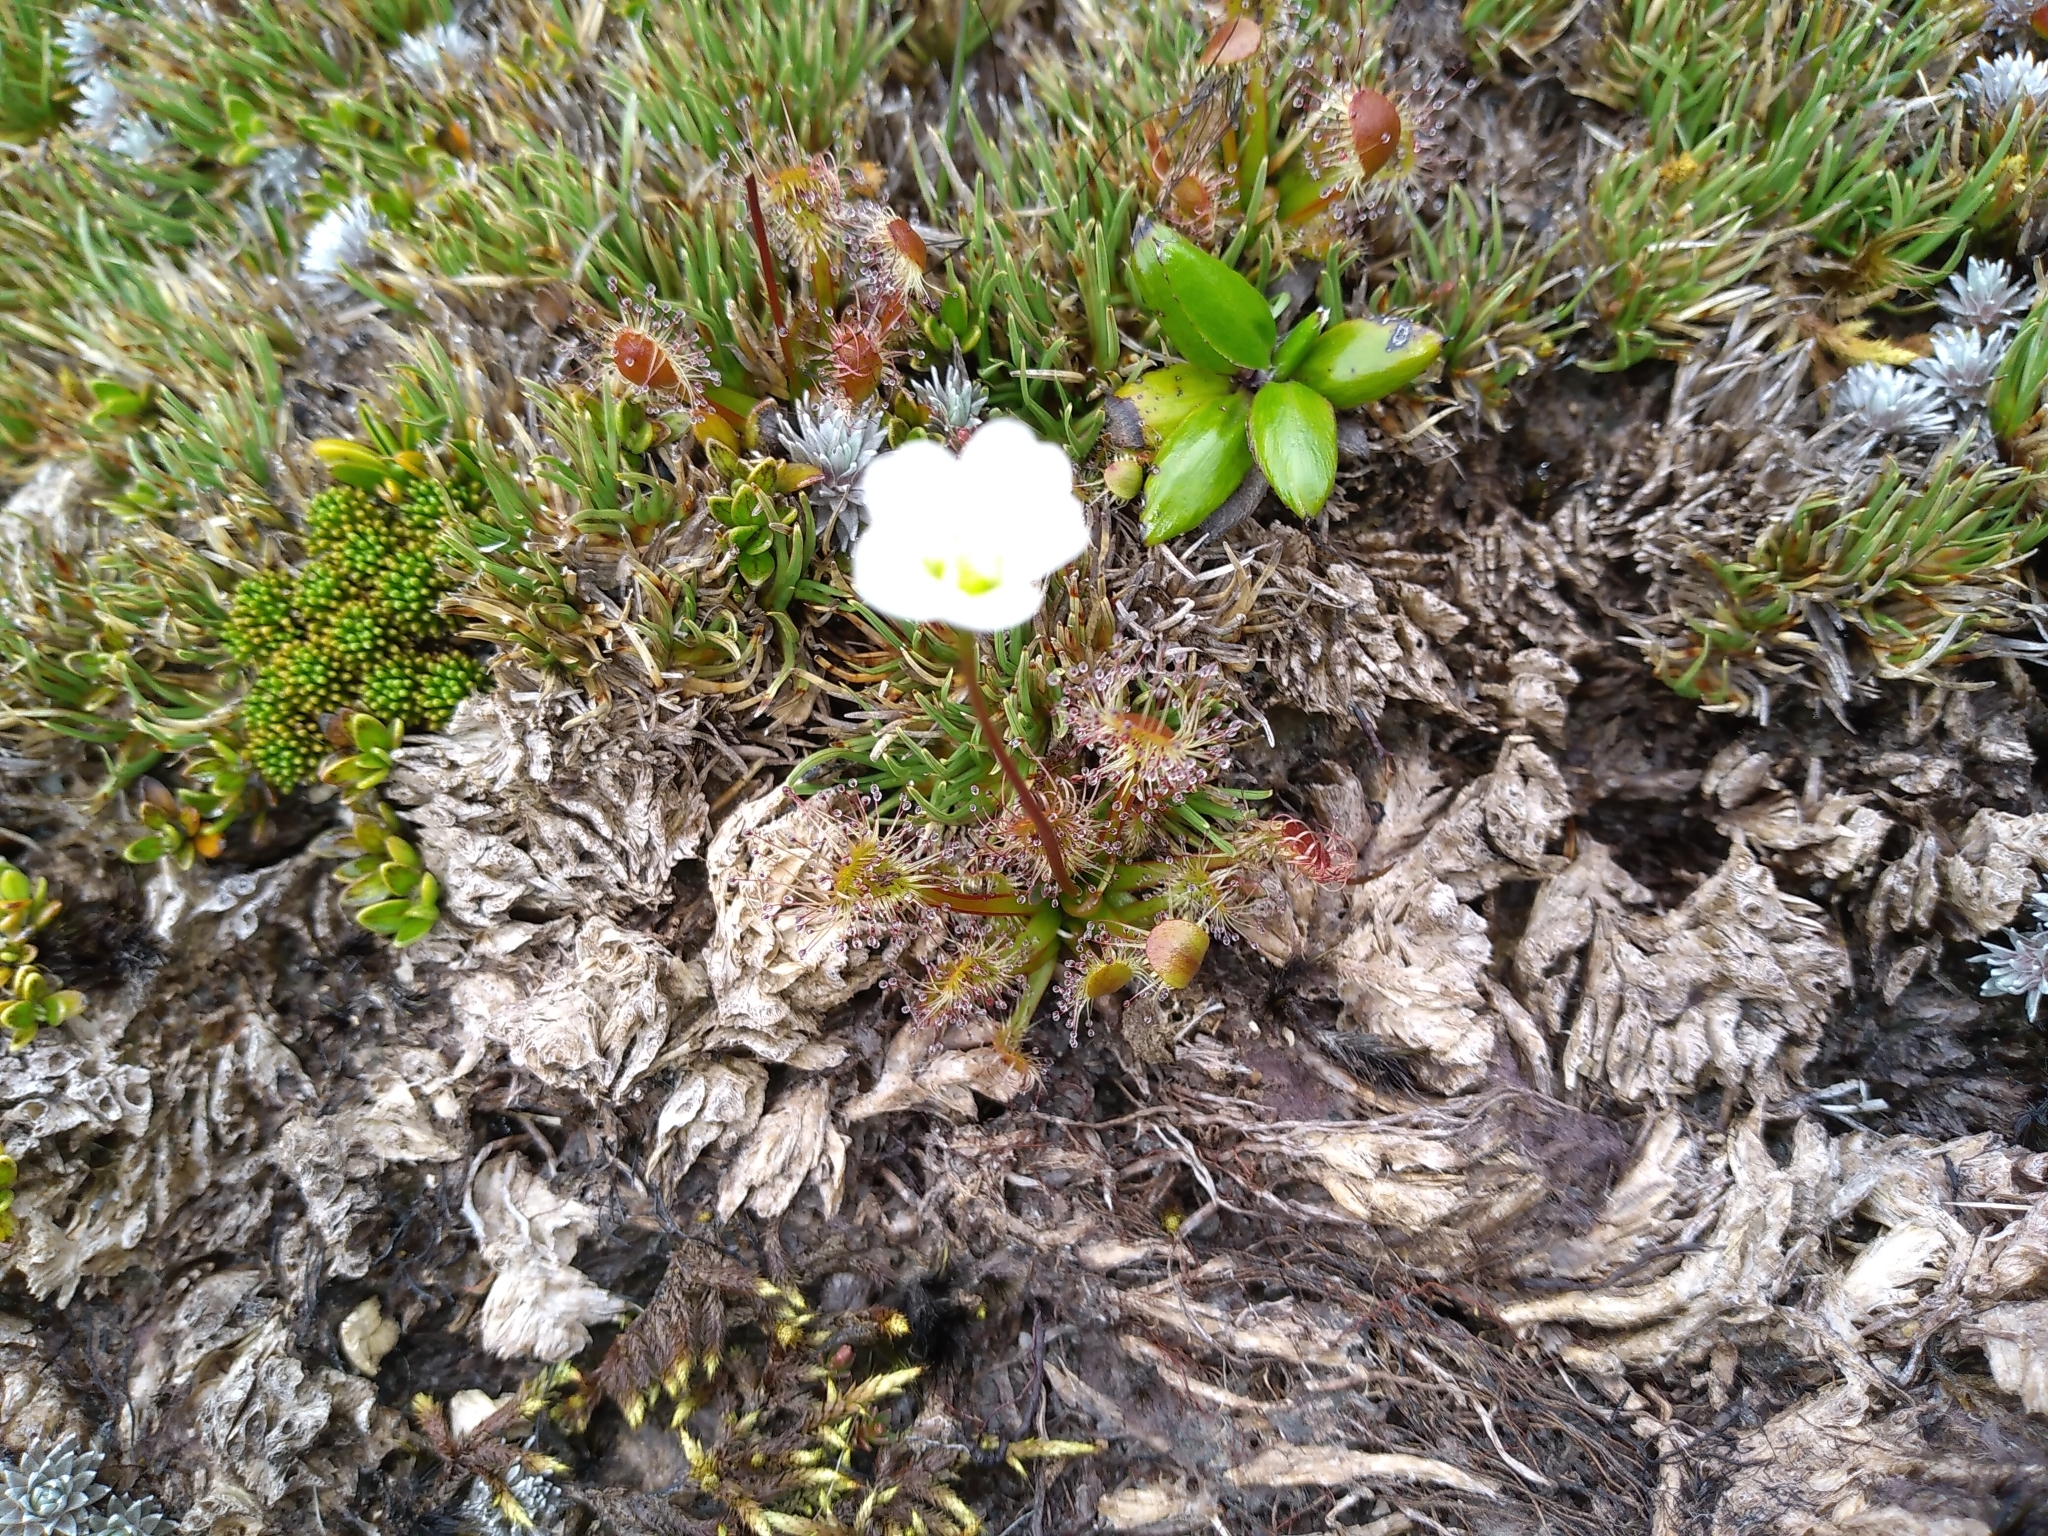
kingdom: Plantae
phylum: Tracheophyta
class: Magnoliopsida
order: Caryophyllales
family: Droseraceae
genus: Drosera
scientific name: Drosera stenopetala
